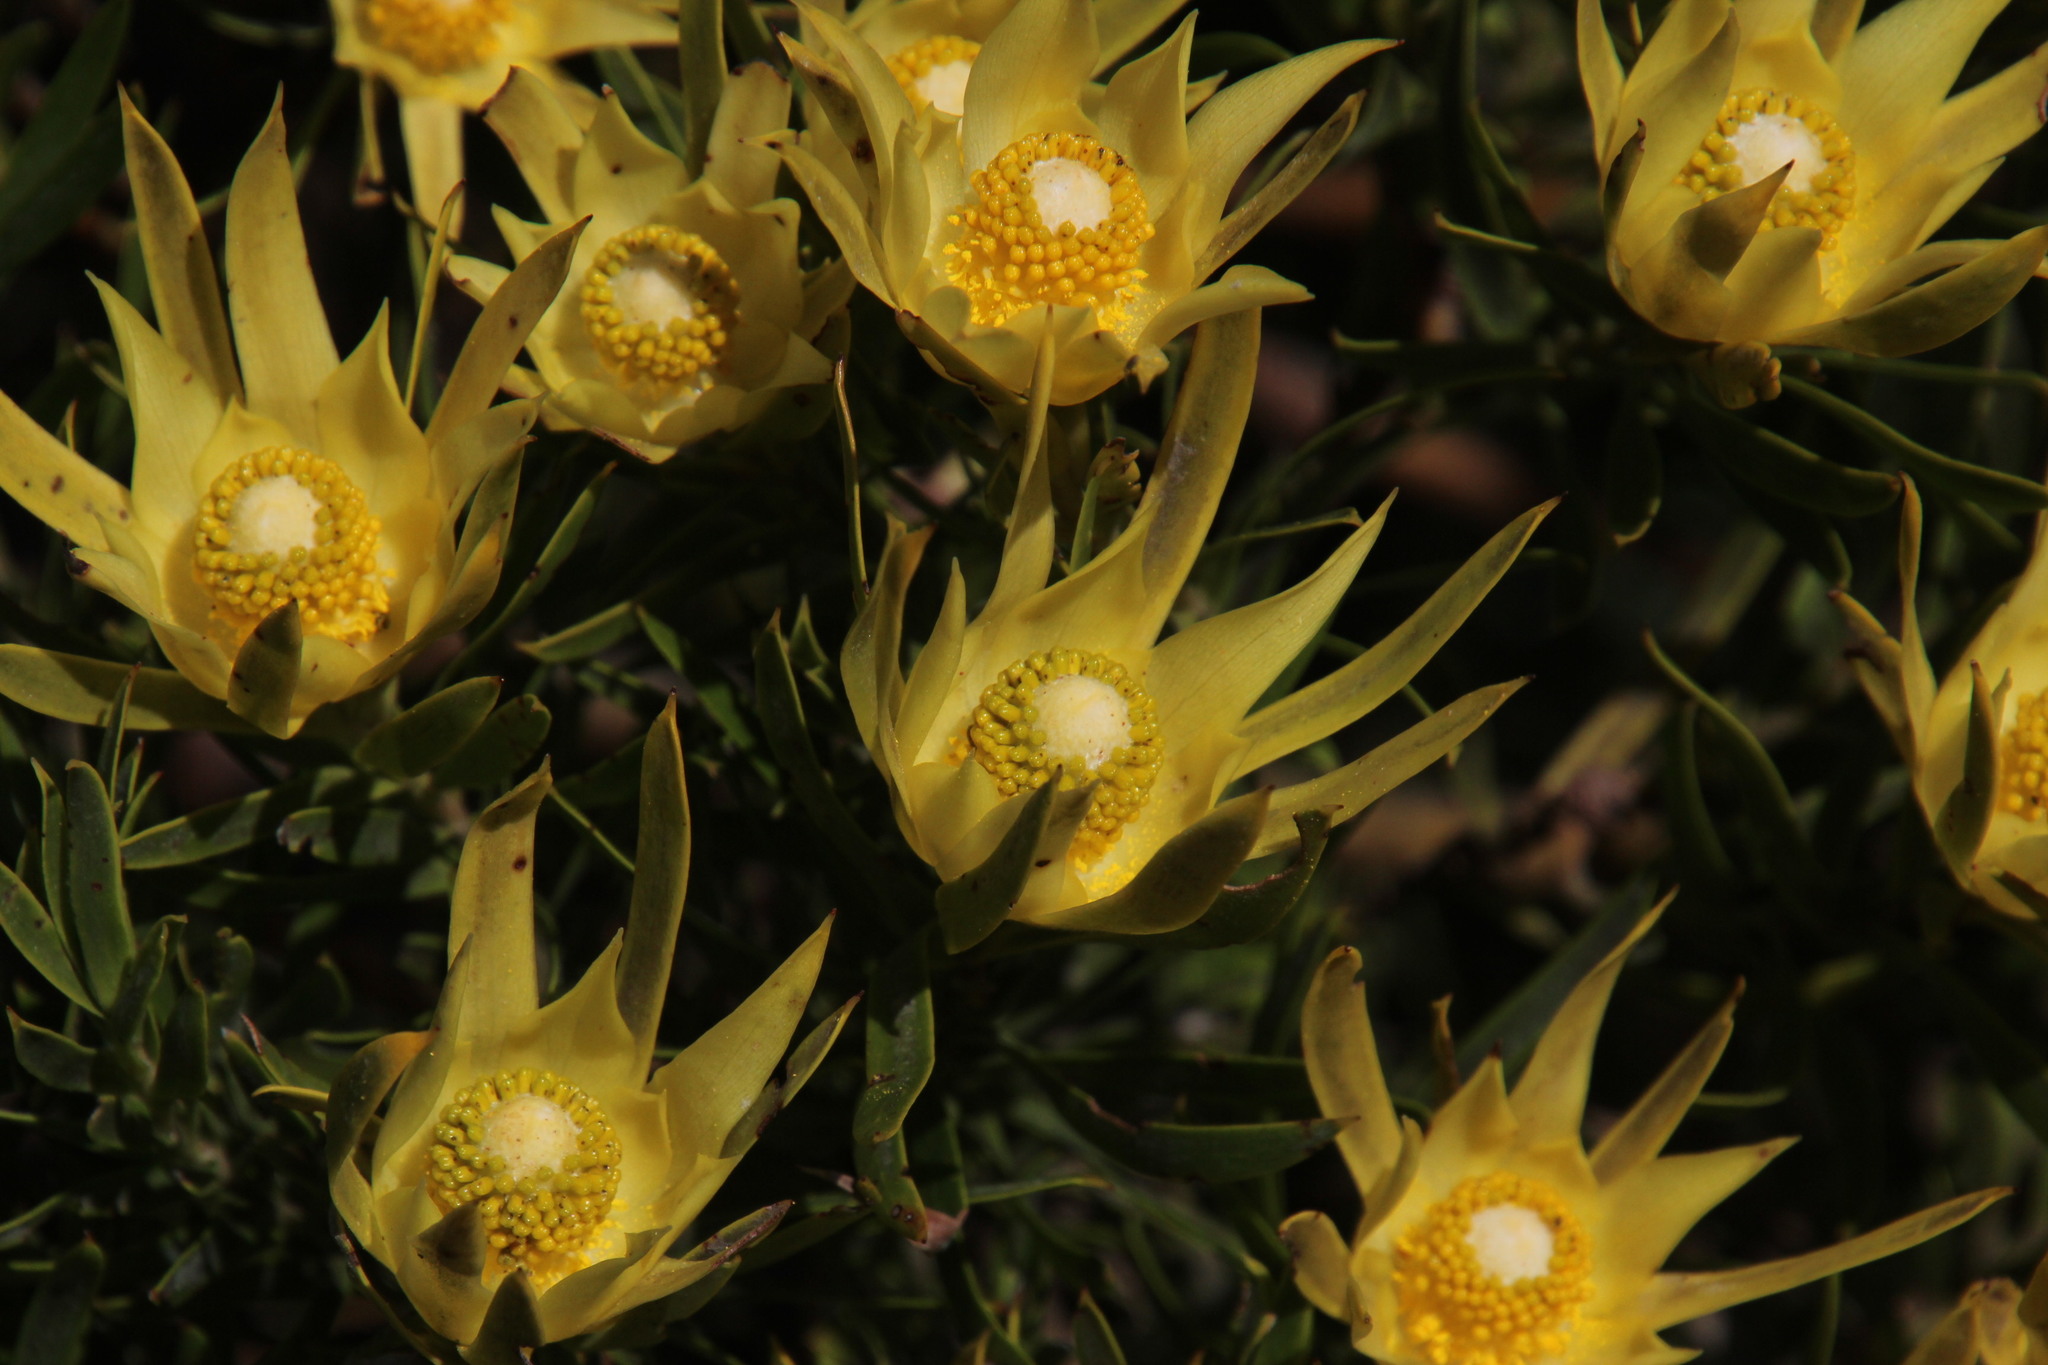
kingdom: Plantae
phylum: Tracheophyta
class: Magnoliopsida
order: Proteales
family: Proteaceae
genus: Leucadendron
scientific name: Leucadendron xanthoconus
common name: Sickle-leaf conebush
